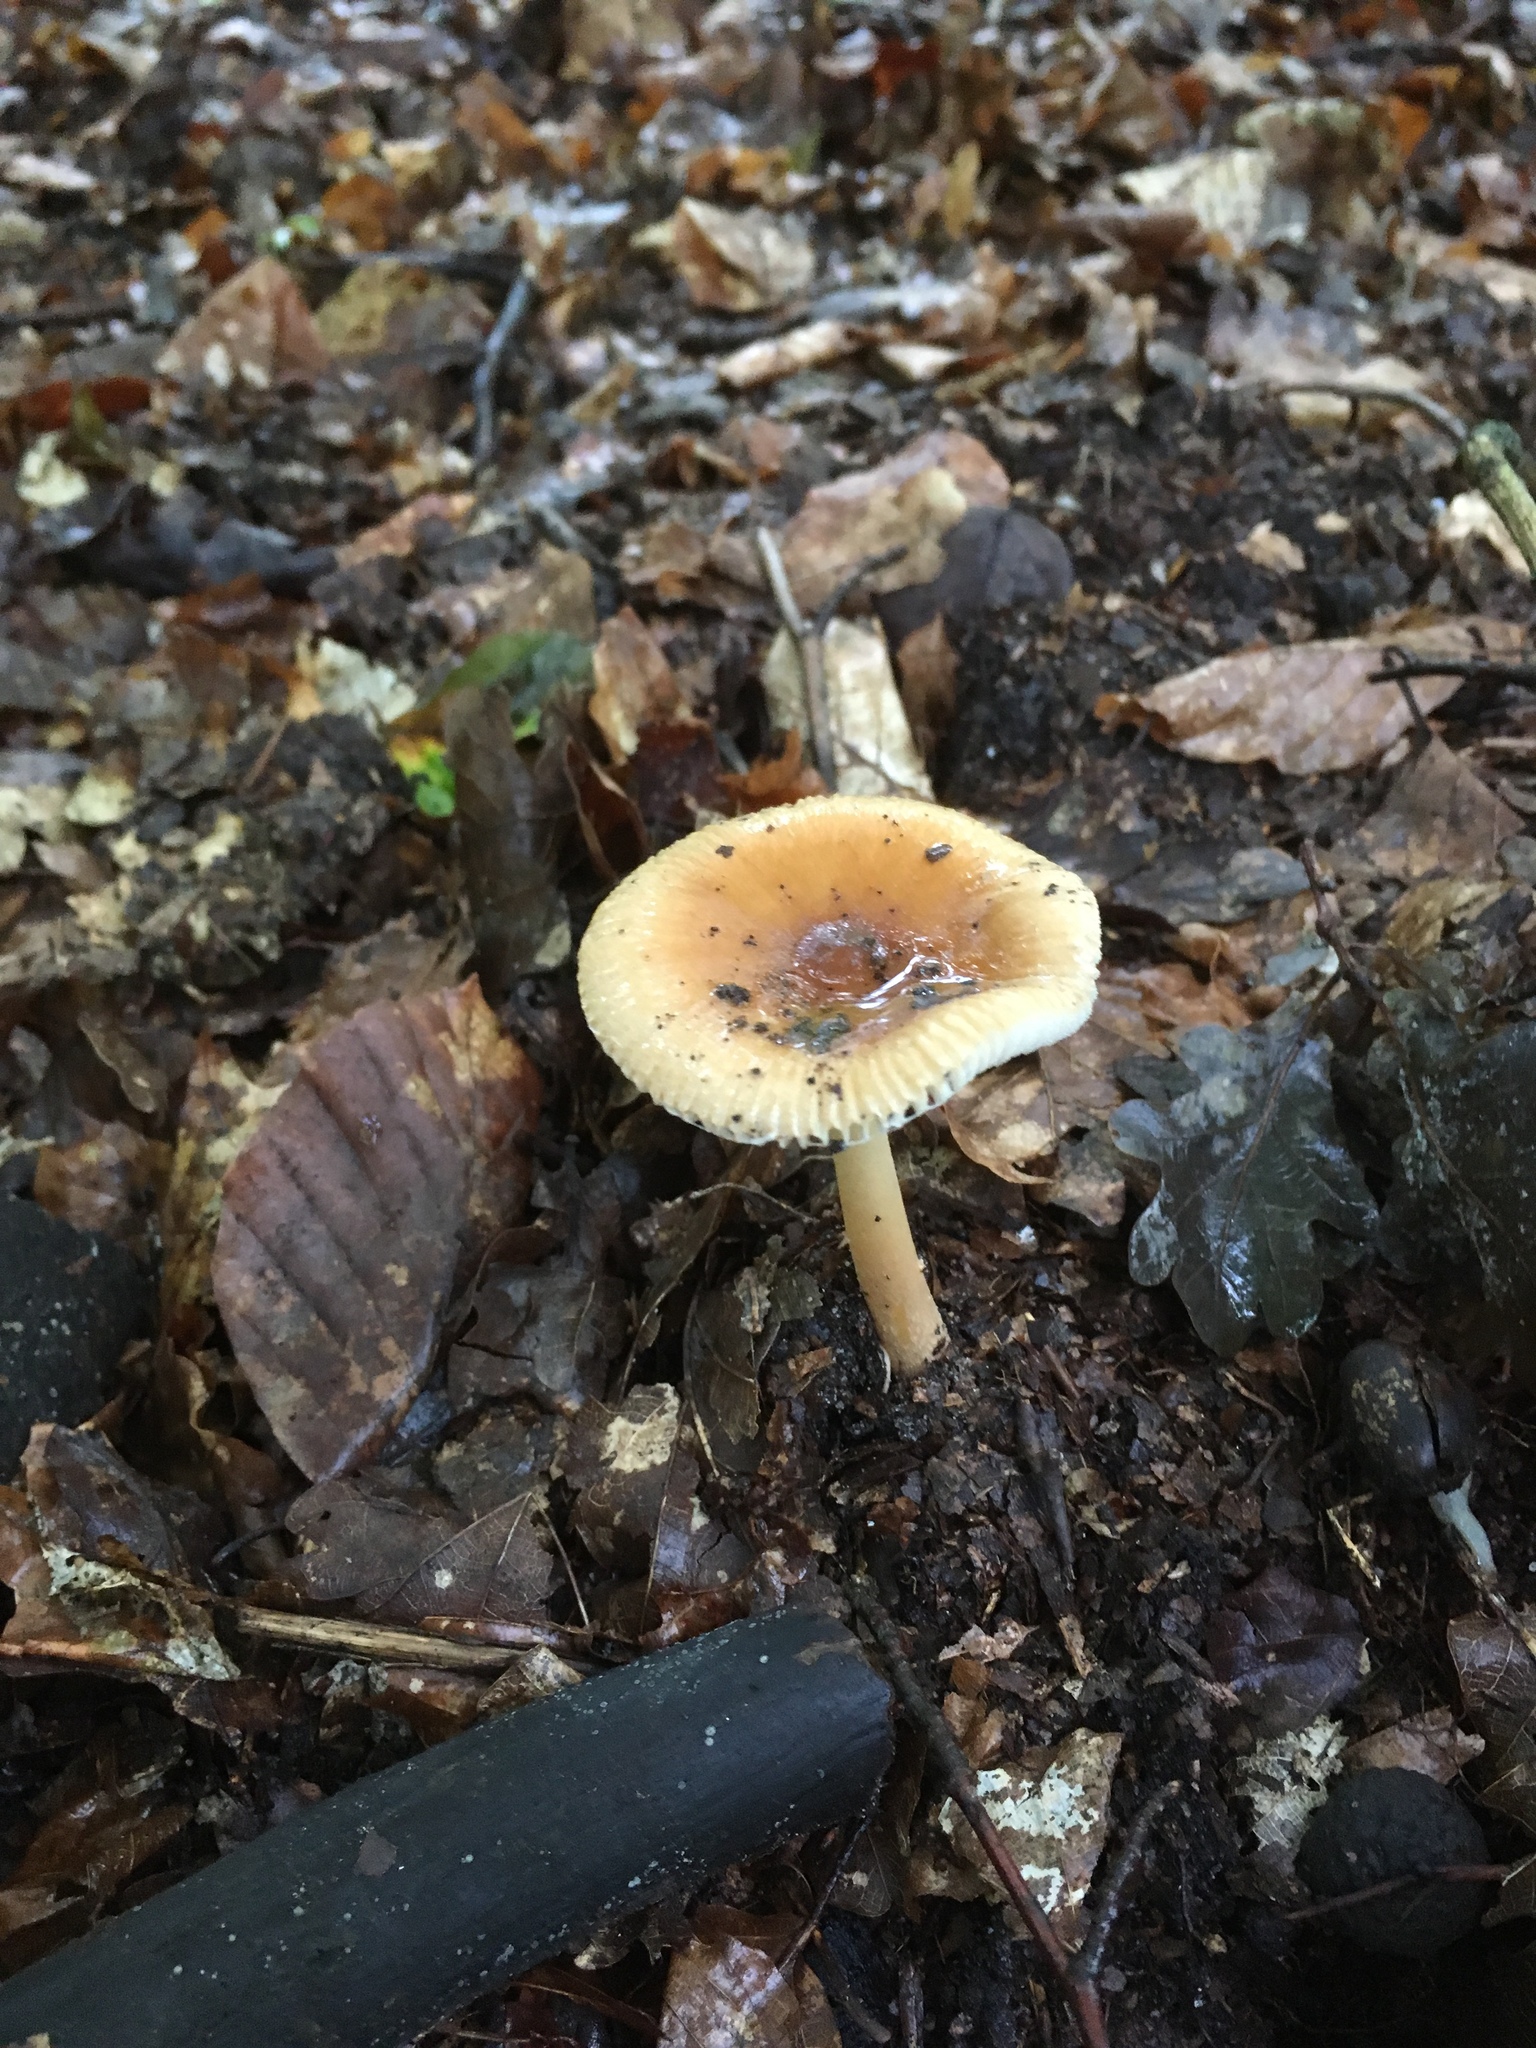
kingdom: Fungi
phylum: Basidiomycota
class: Agaricomycetes
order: Agaricales
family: Amanitaceae
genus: Amanita
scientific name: Amanita fulva
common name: Tawny grisette
